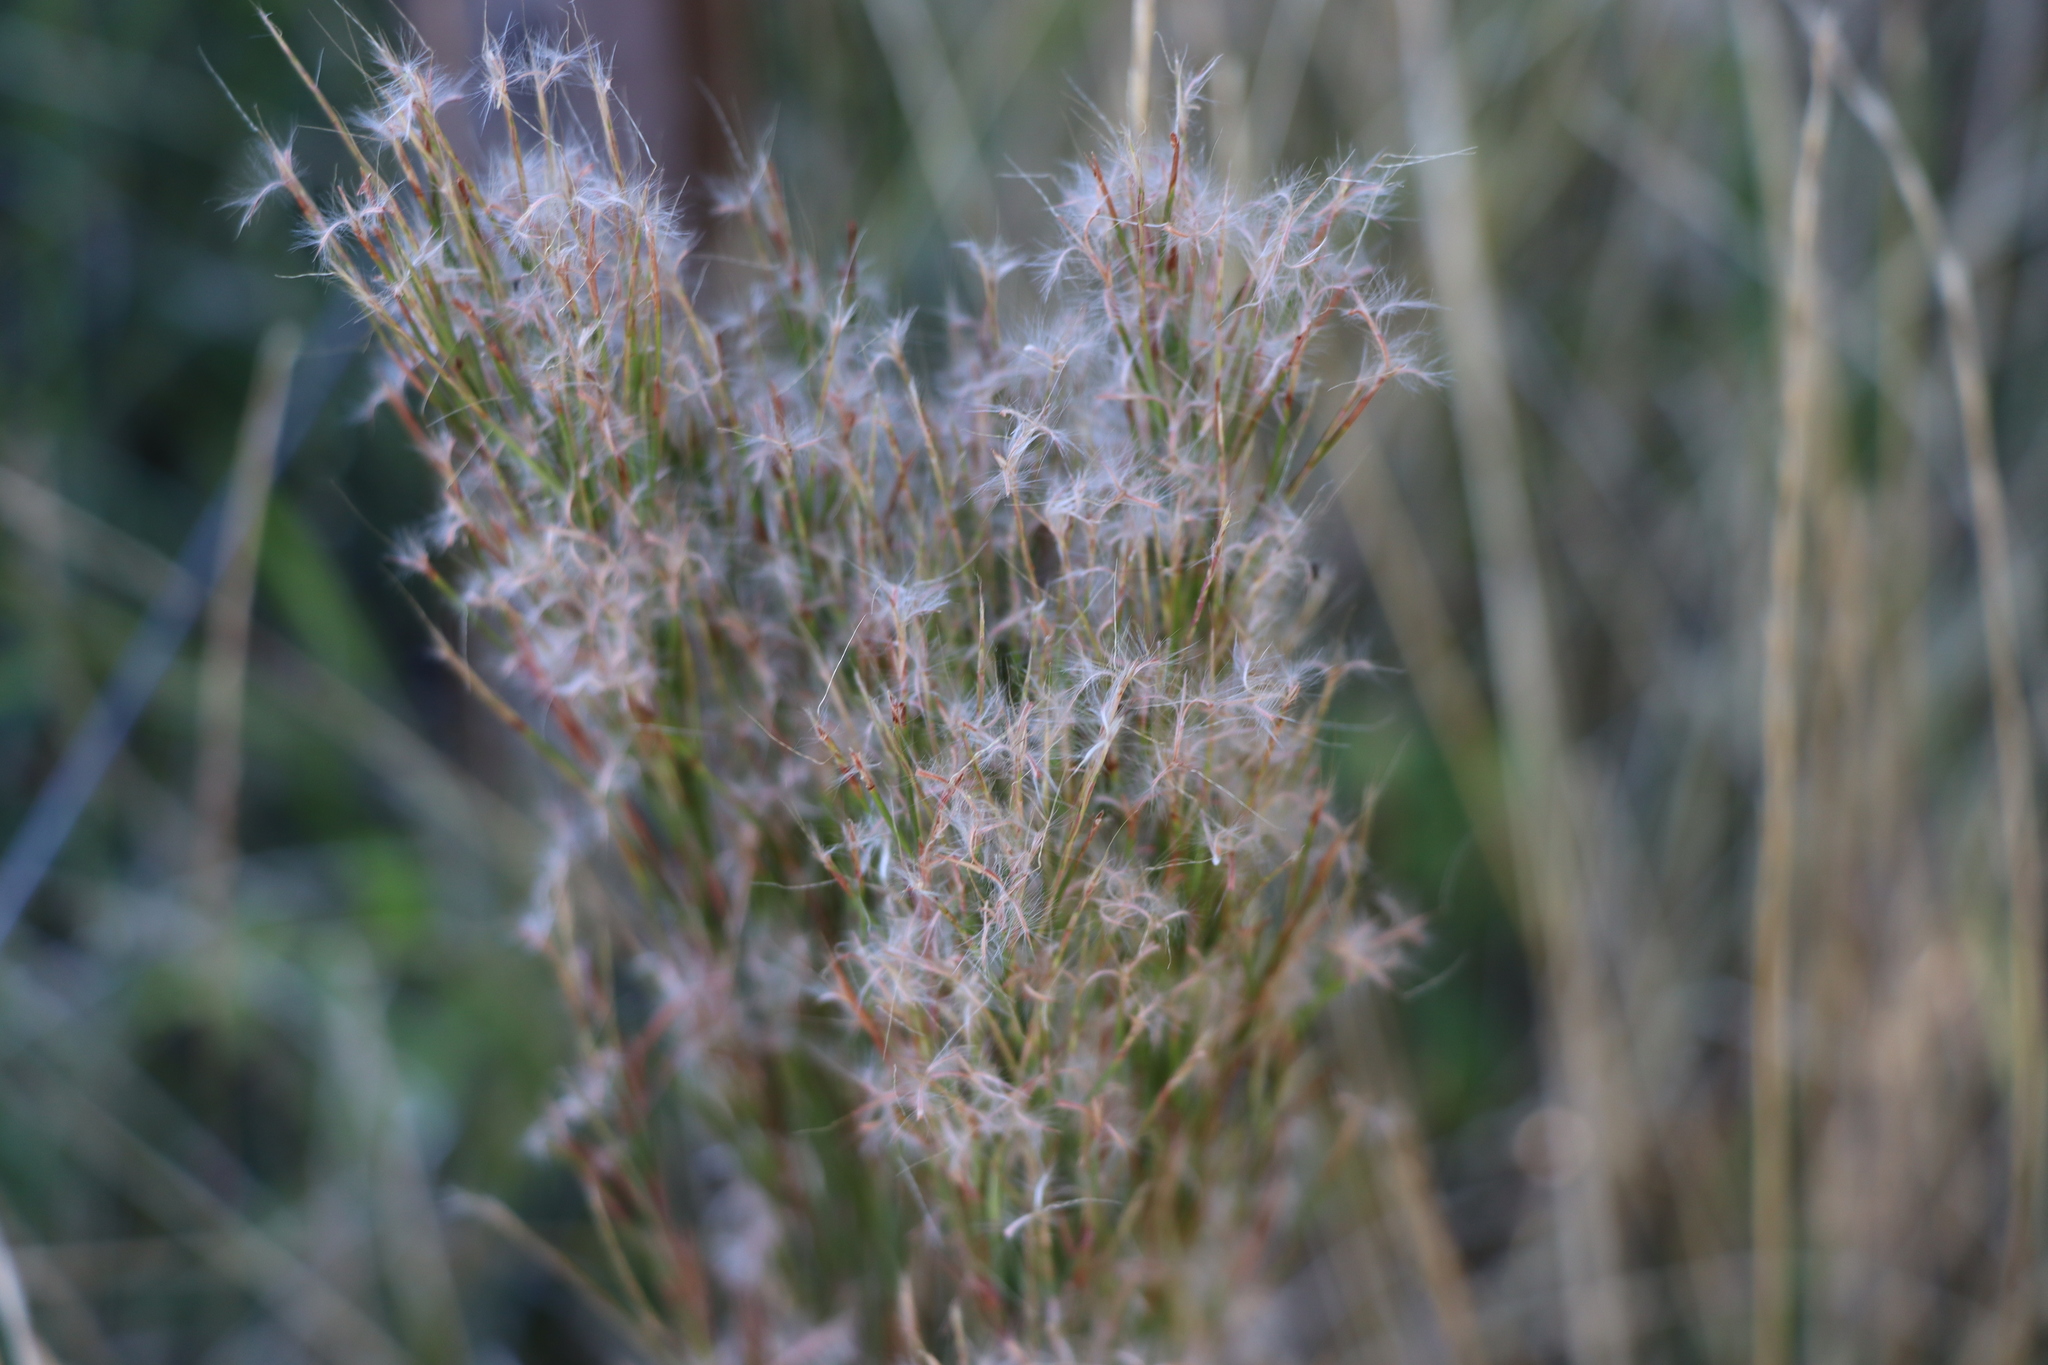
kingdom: Plantae
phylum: Tracheophyta
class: Liliopsida
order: Poales
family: Poaceae
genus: Schizachyrium
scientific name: Schizachyrium microstachyum
